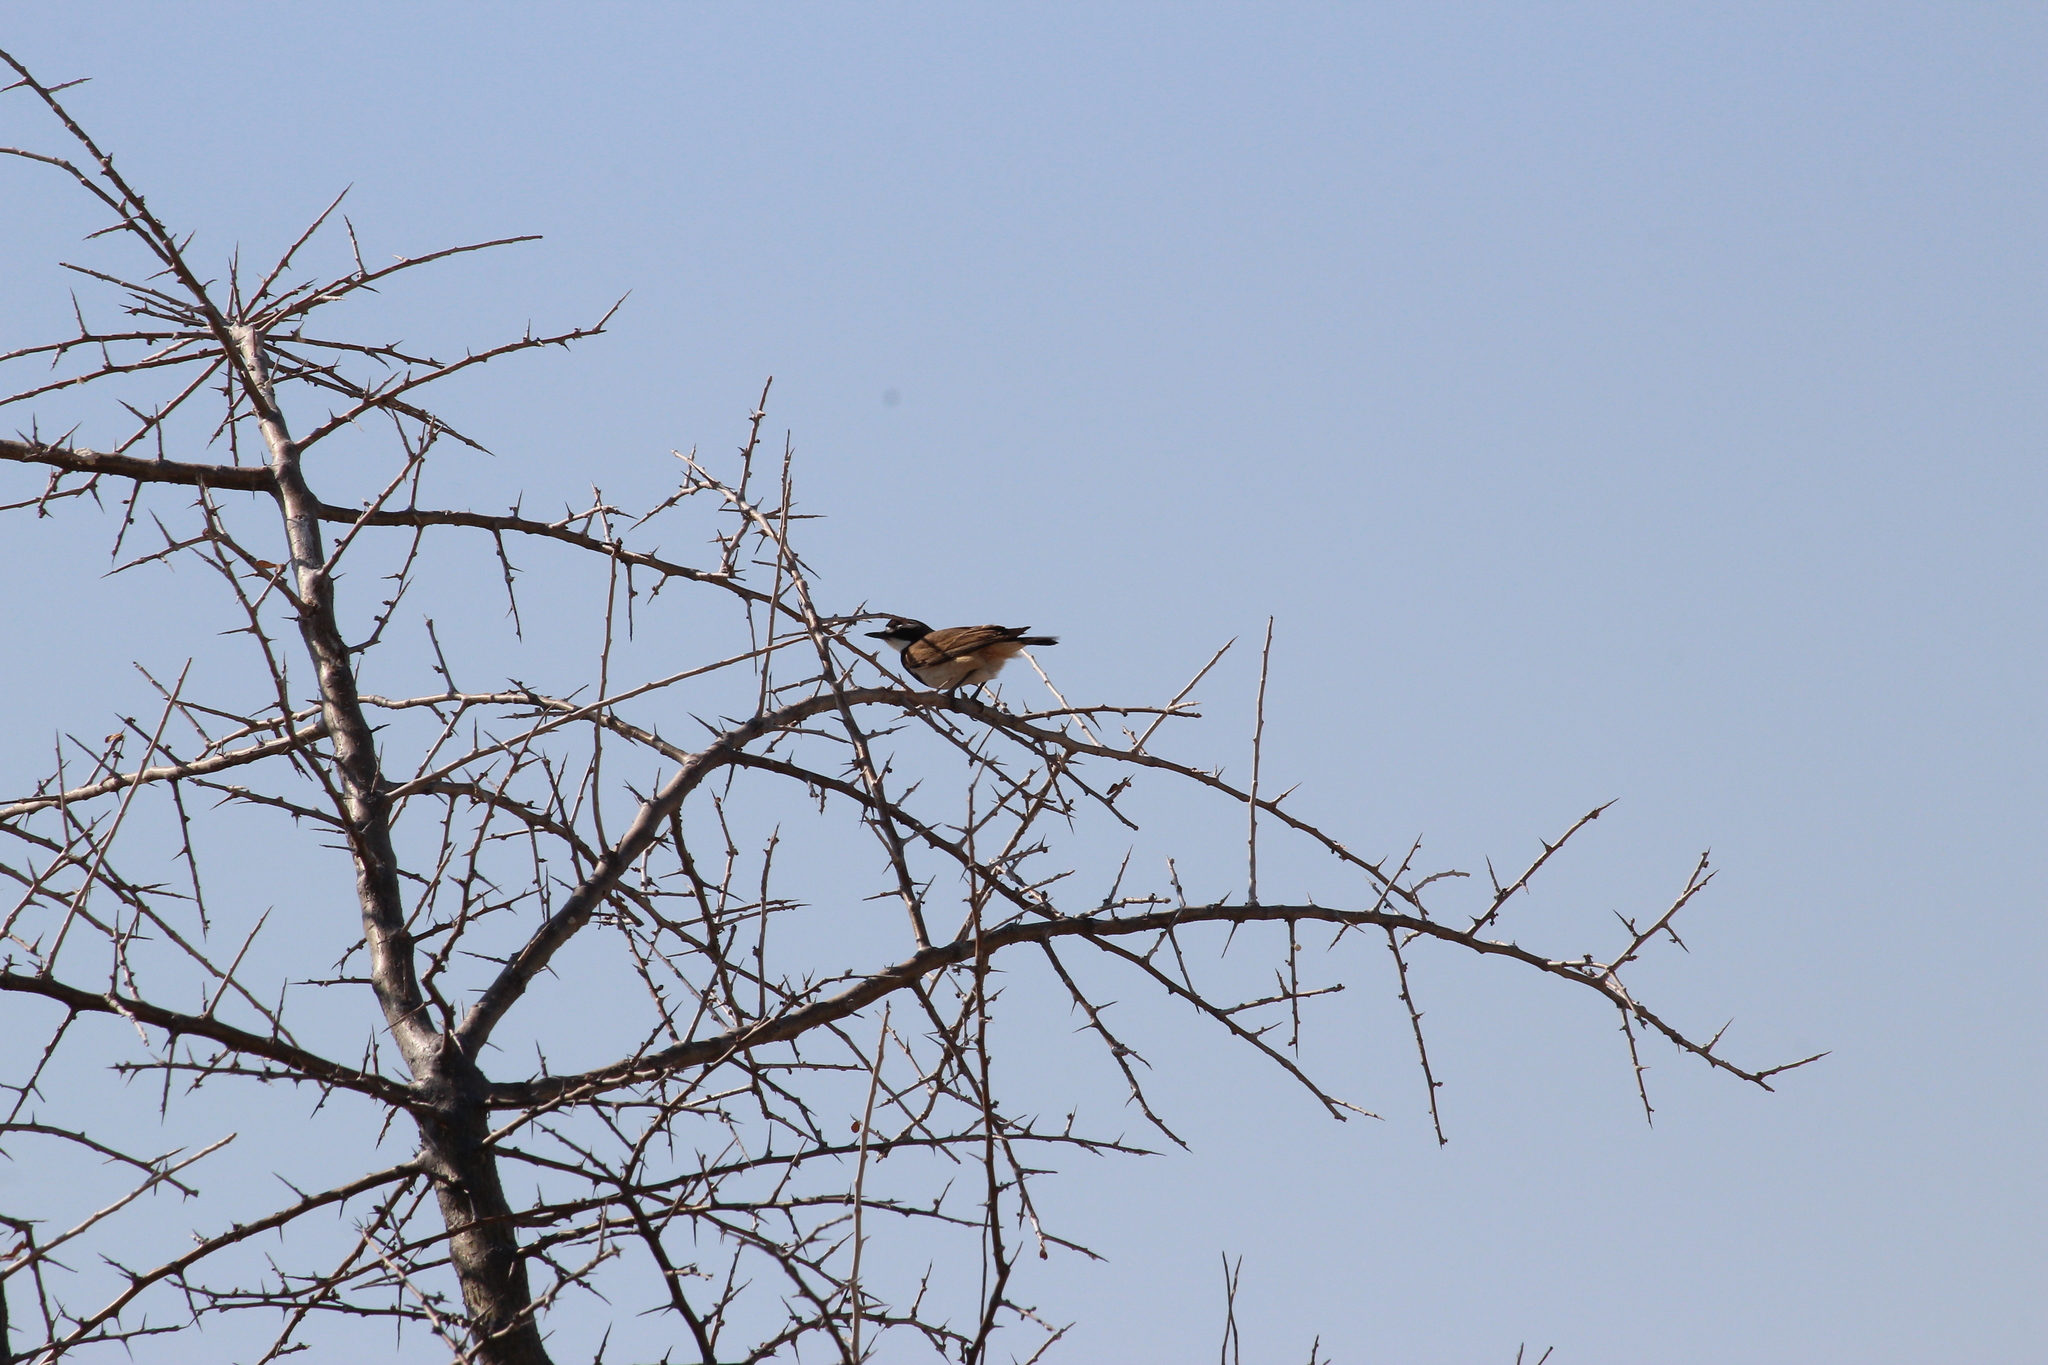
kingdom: Animalia
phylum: Chordata
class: Aves
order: Passeriformes
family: Muscicapidae
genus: Oenanthe
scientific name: Oenanthe pileata
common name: Capped wheatear
